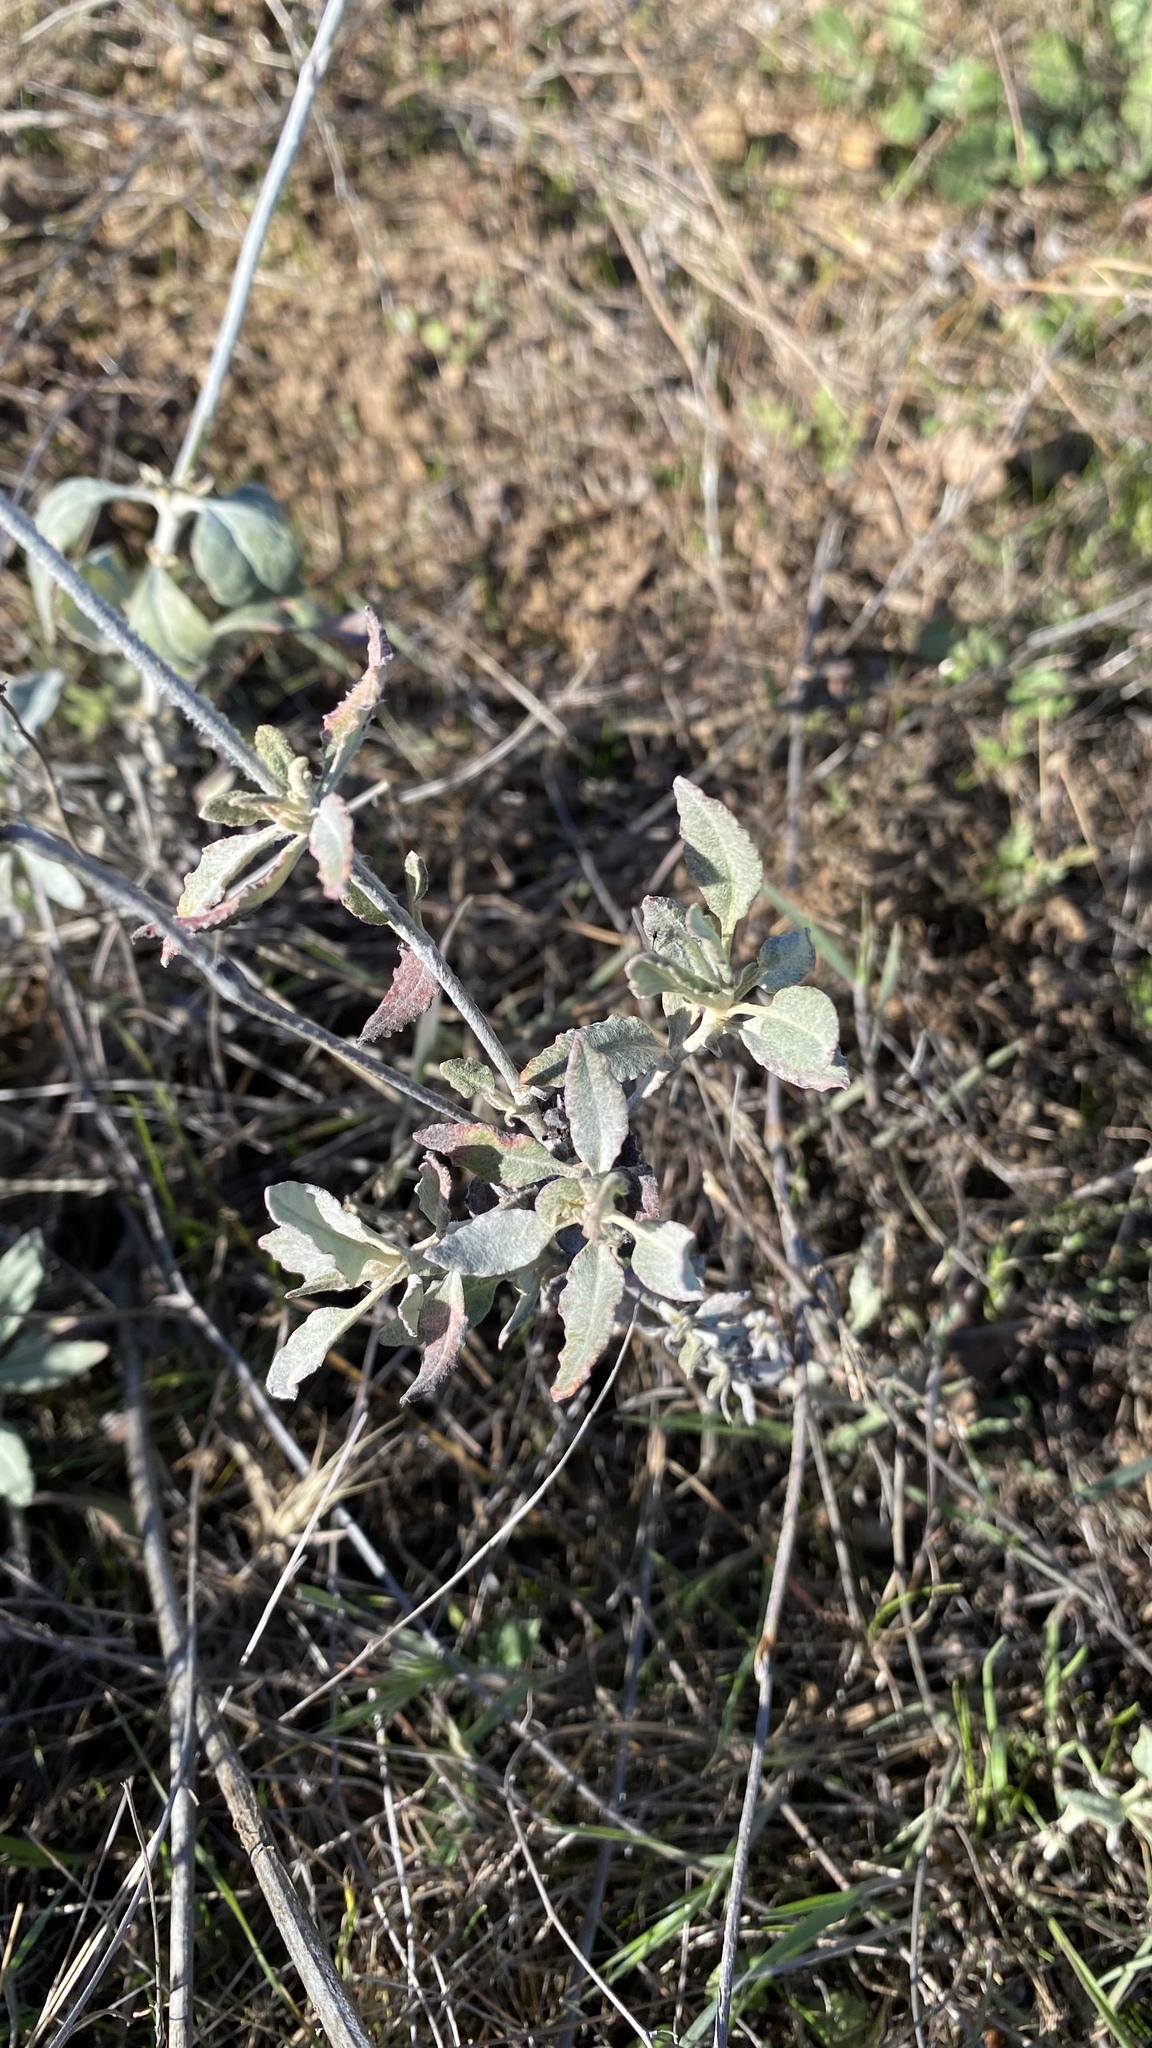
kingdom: Plantae
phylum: Tracheophyta
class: Magnoliopsida
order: Caryophyllales
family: Polygonaceae
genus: Eriogonum
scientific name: Eriogonum elongatum
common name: Long-stem wild buckwheat
